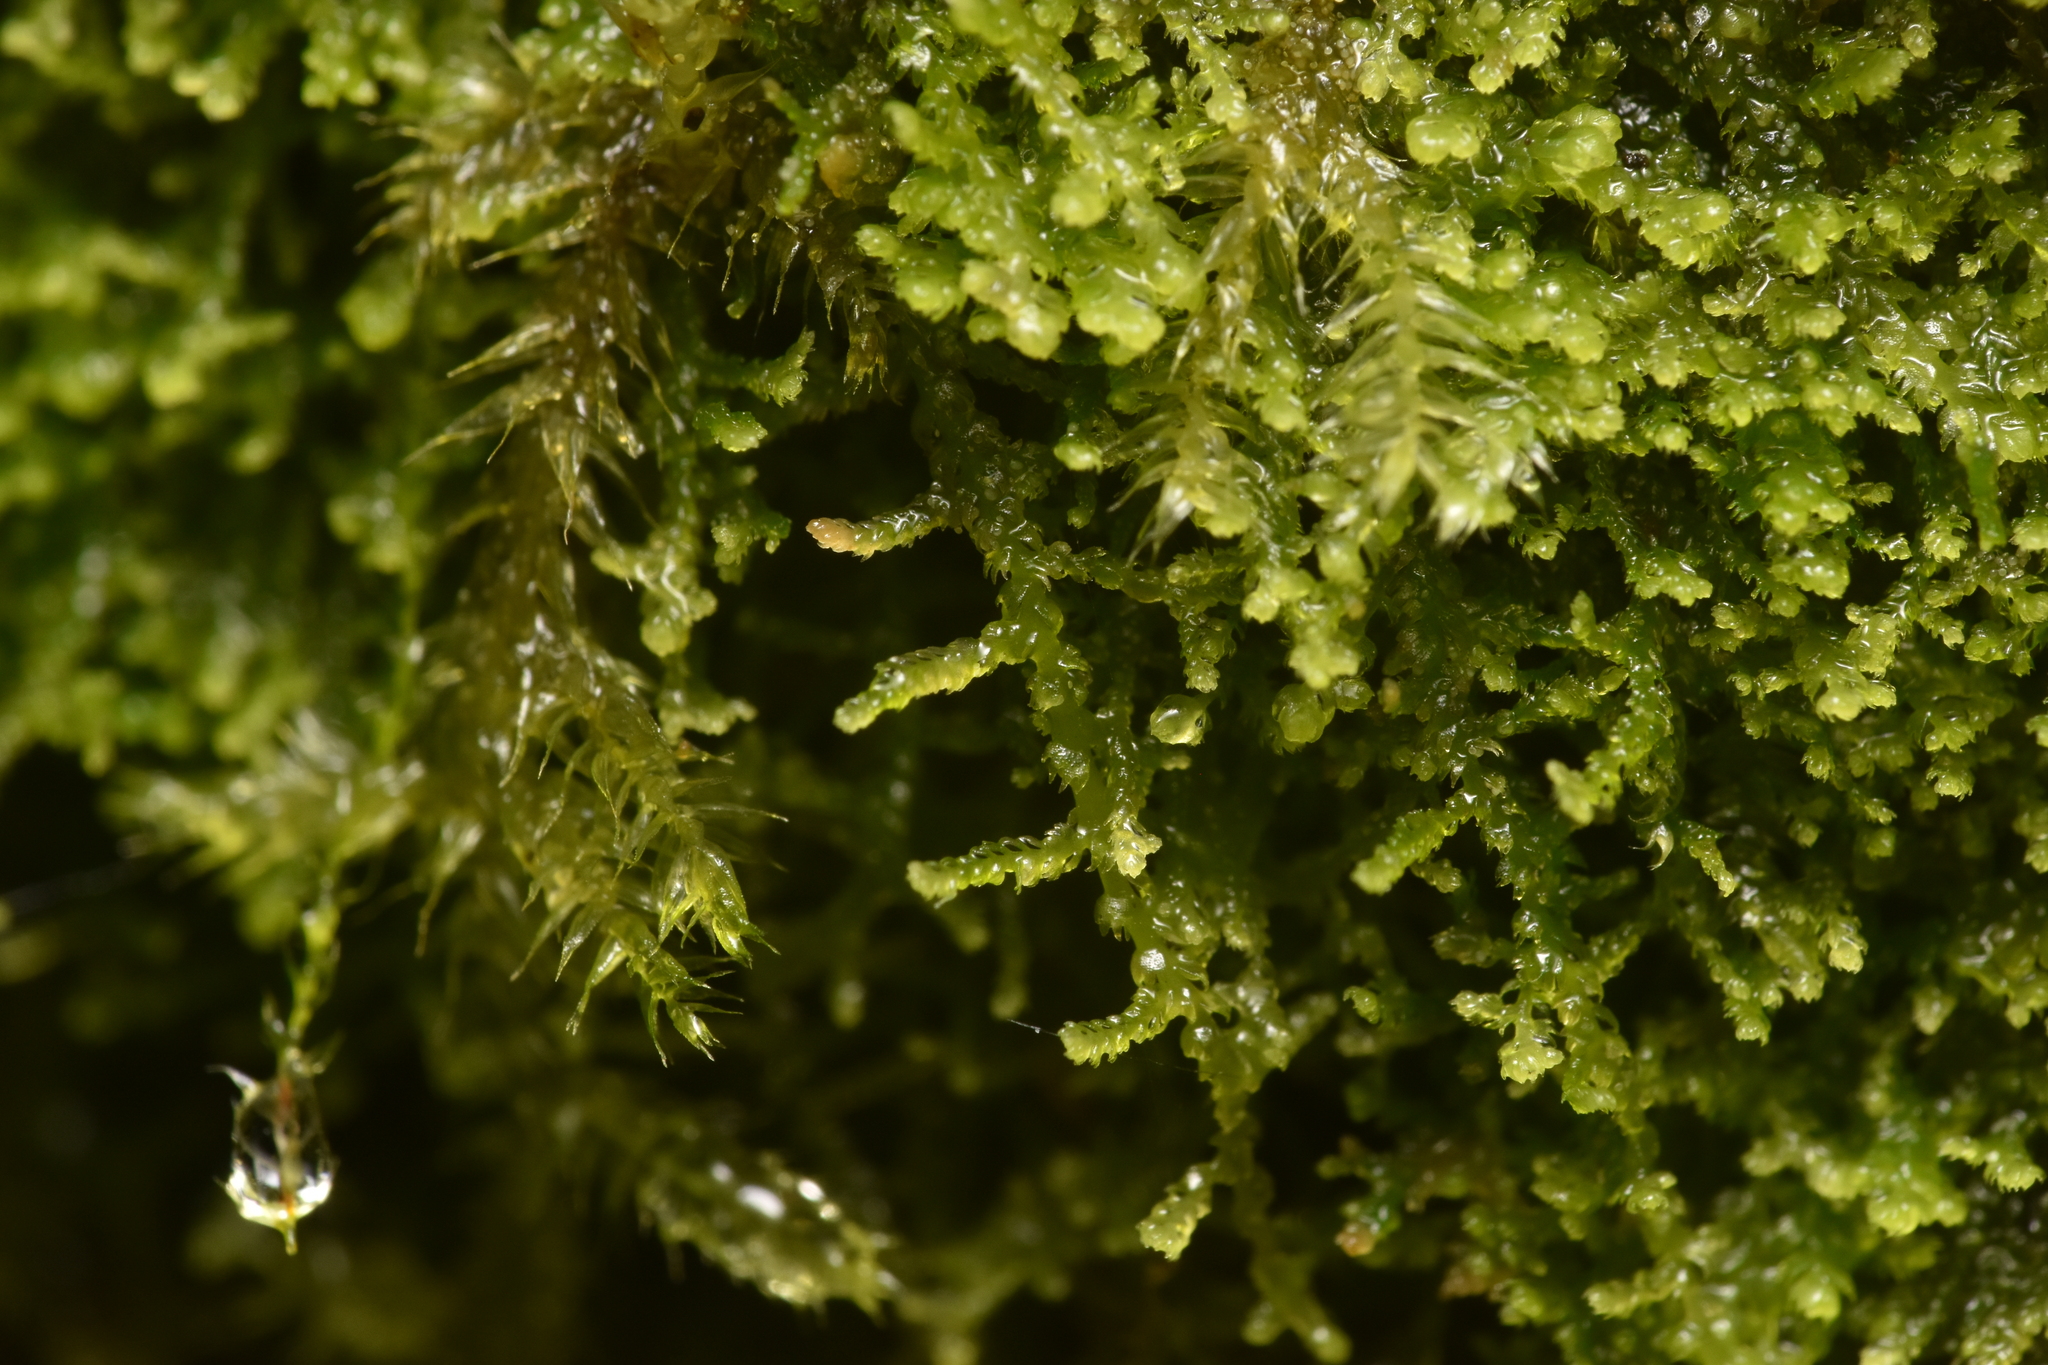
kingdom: Plantae
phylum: Marchantiophyta
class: Jungermanniopsida
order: Jungermanniales
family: Lepidoziaceae
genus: Lepidozia
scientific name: Lepidozia reptans
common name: Creeping fingerwort
